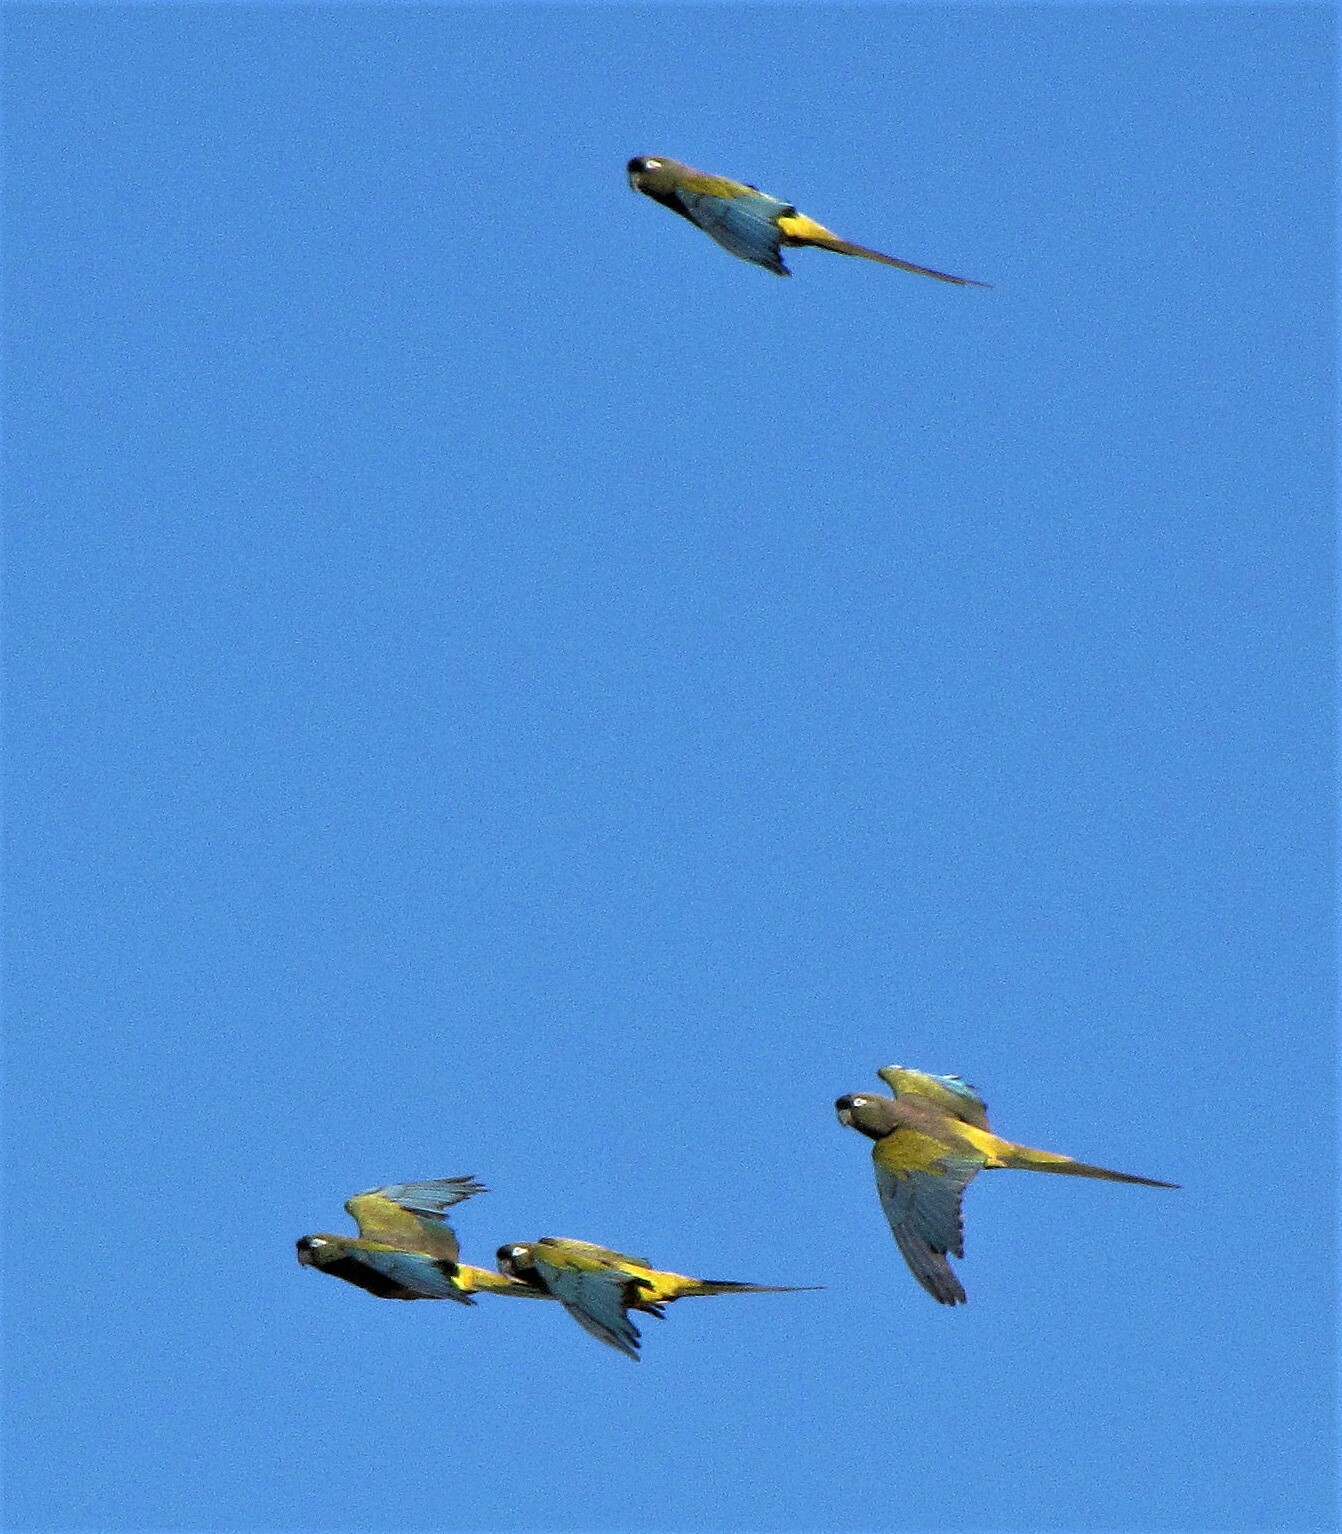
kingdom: Animalia
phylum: Chordata
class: Aves
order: Psittaciformes
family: Psittacidae
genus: Cyanoliseus
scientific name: Cyanoliseus patagonus
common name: Burrowing parrot
